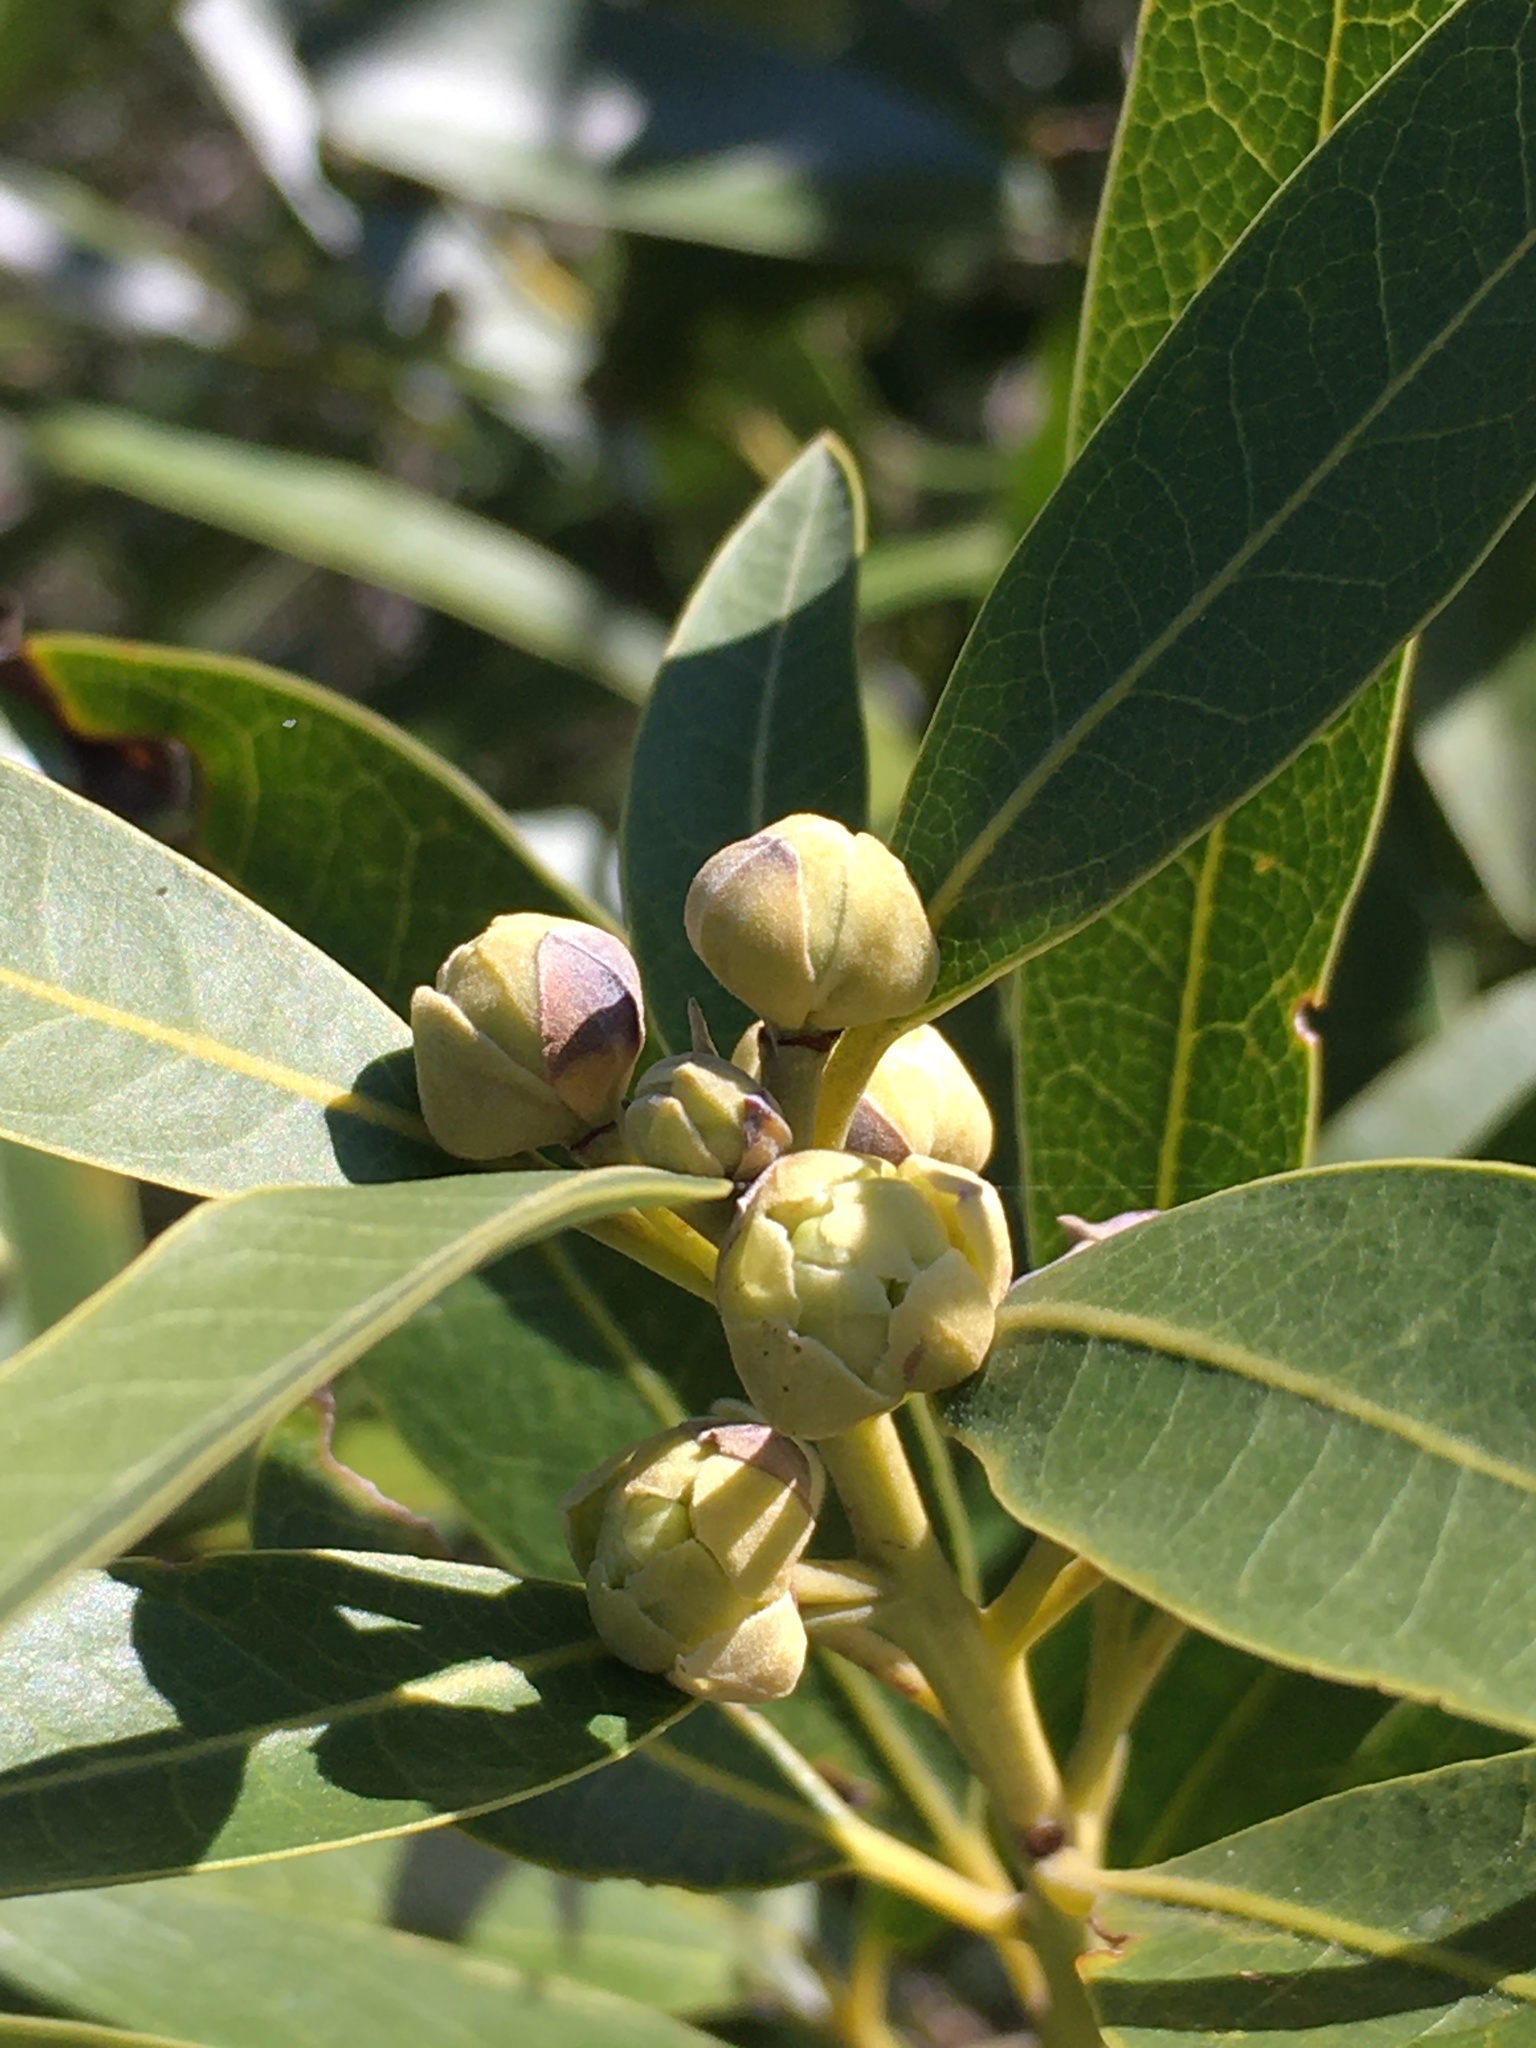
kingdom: Plantae
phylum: Tracheophyta
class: Magnoliopsida
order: Laurales
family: Lauraceae
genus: Umbellularia
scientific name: Umbellularia californica
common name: California bay
